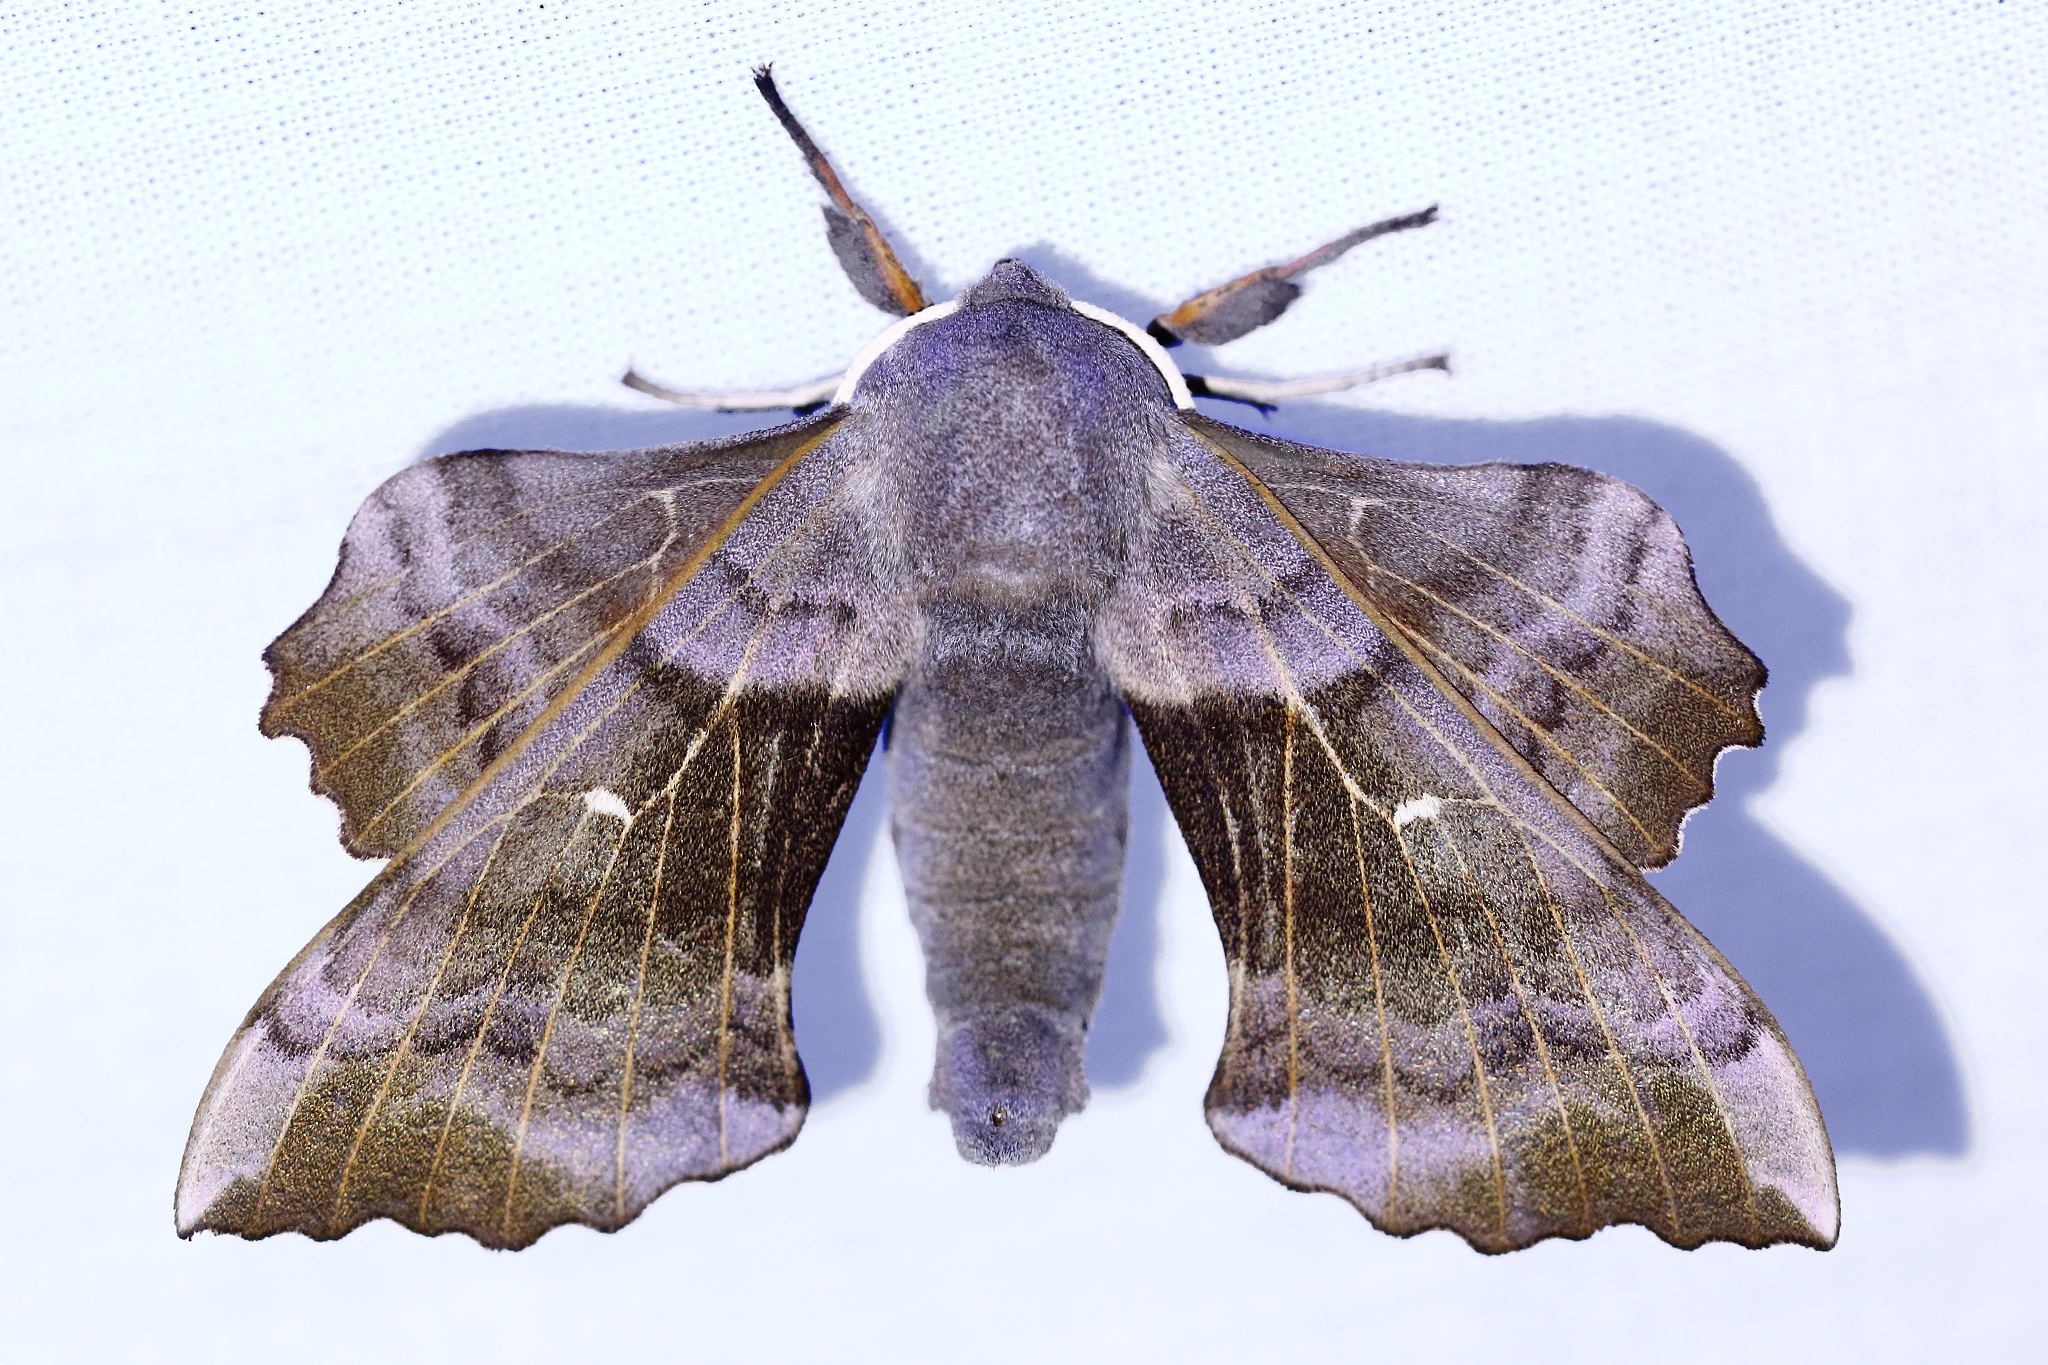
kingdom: Animalia
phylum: Arthropoda
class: Insecta
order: Lepidoptera
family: Sphingidae
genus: Laothoe
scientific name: Laothoe populi
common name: Poplar hawk-moth
